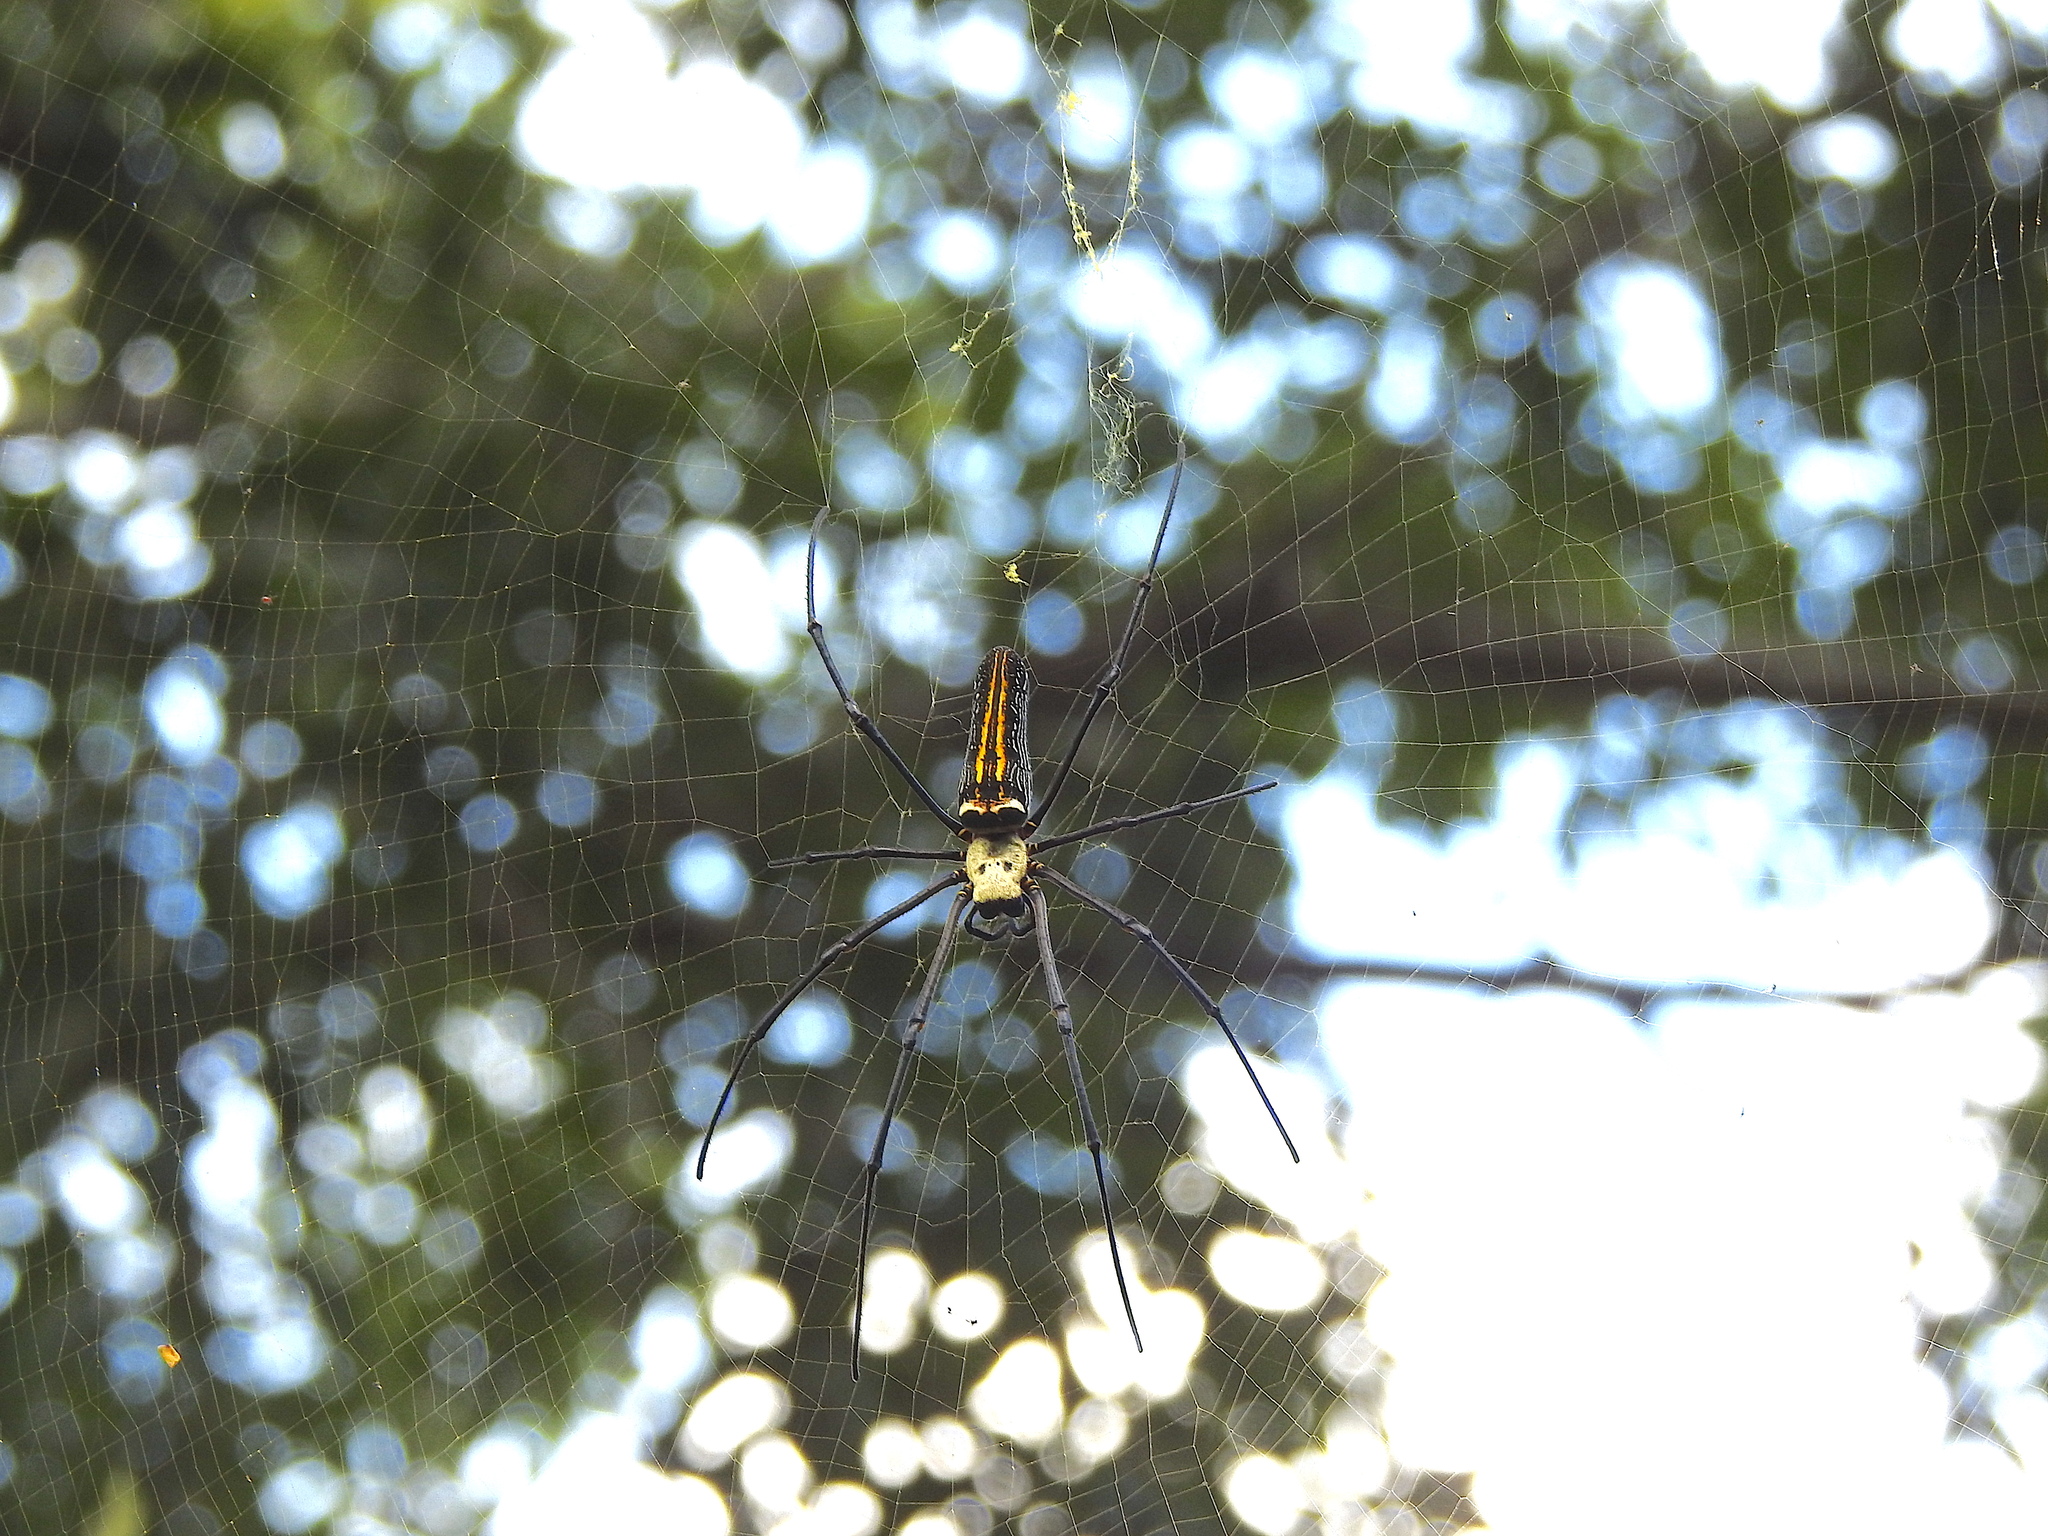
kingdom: Animalia
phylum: Arthropoda
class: Arachnida
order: Araneae
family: Araneidae
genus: Nephila
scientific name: Nephila pilipes
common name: Giant golden orb weaver
